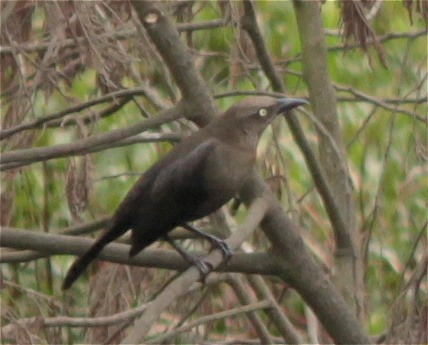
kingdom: Animalia
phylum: Chordata
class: Aves
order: Passeriformes
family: Icteridae
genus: Quiscalus
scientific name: Quiscalus lugubris
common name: Carib grackle
